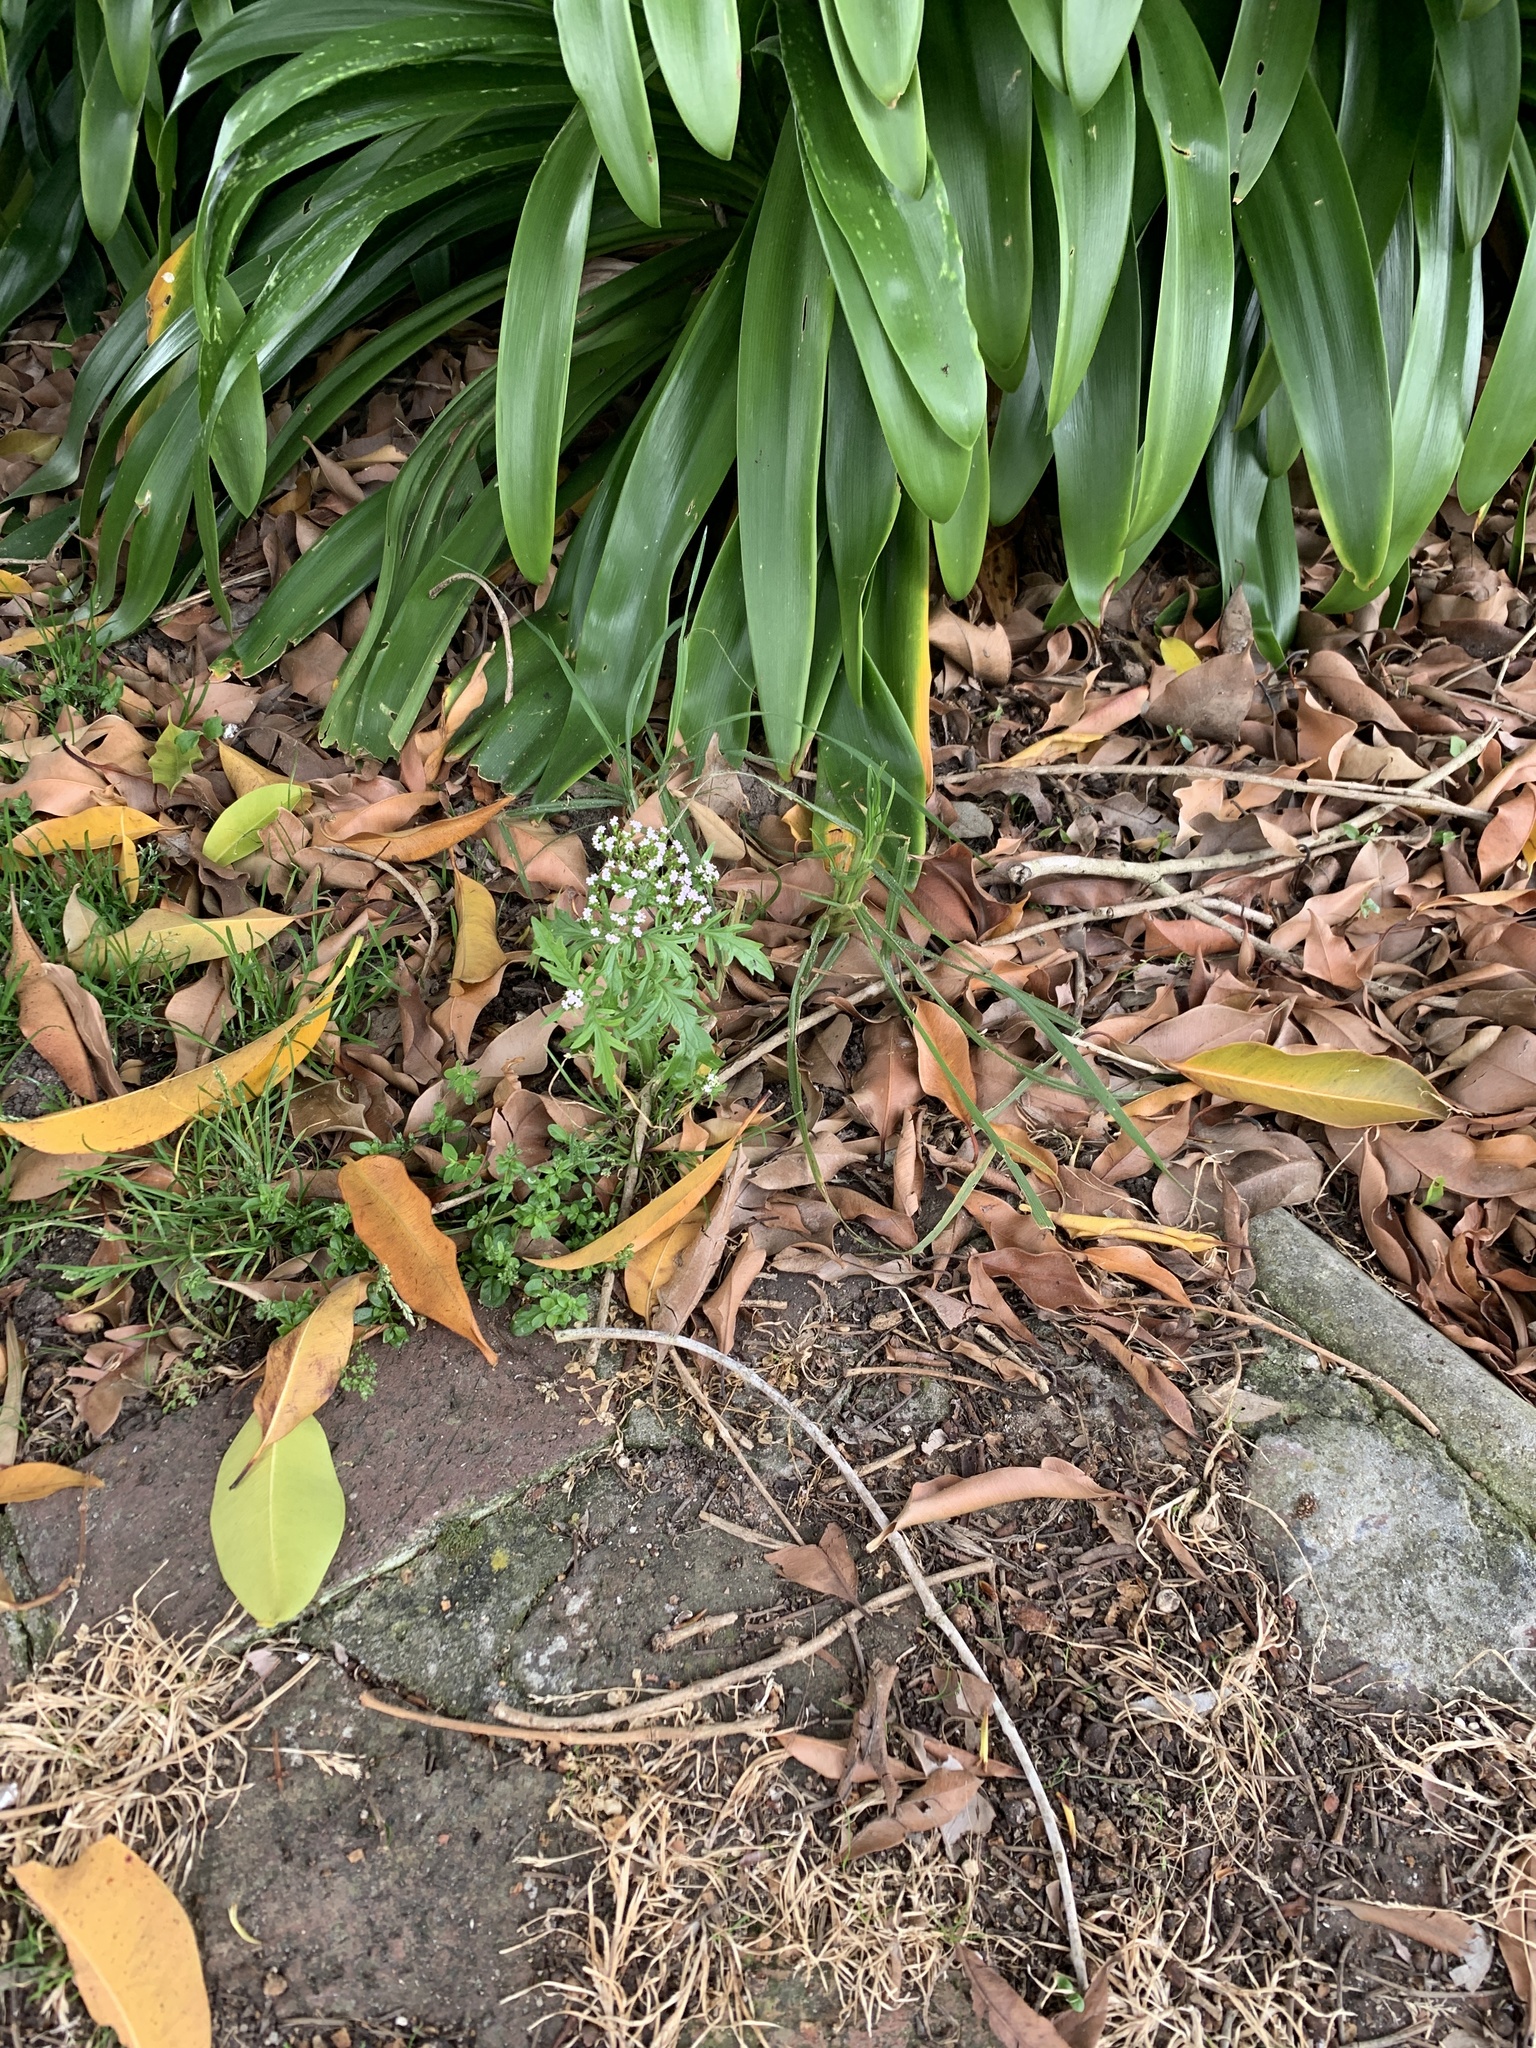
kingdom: Plantae
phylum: Tracheophyta
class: Magnoliopsida
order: Dipsacales
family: Caprifoliaceae
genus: Centranthus
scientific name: Centranthus calcitrapae
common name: Annual valerian
